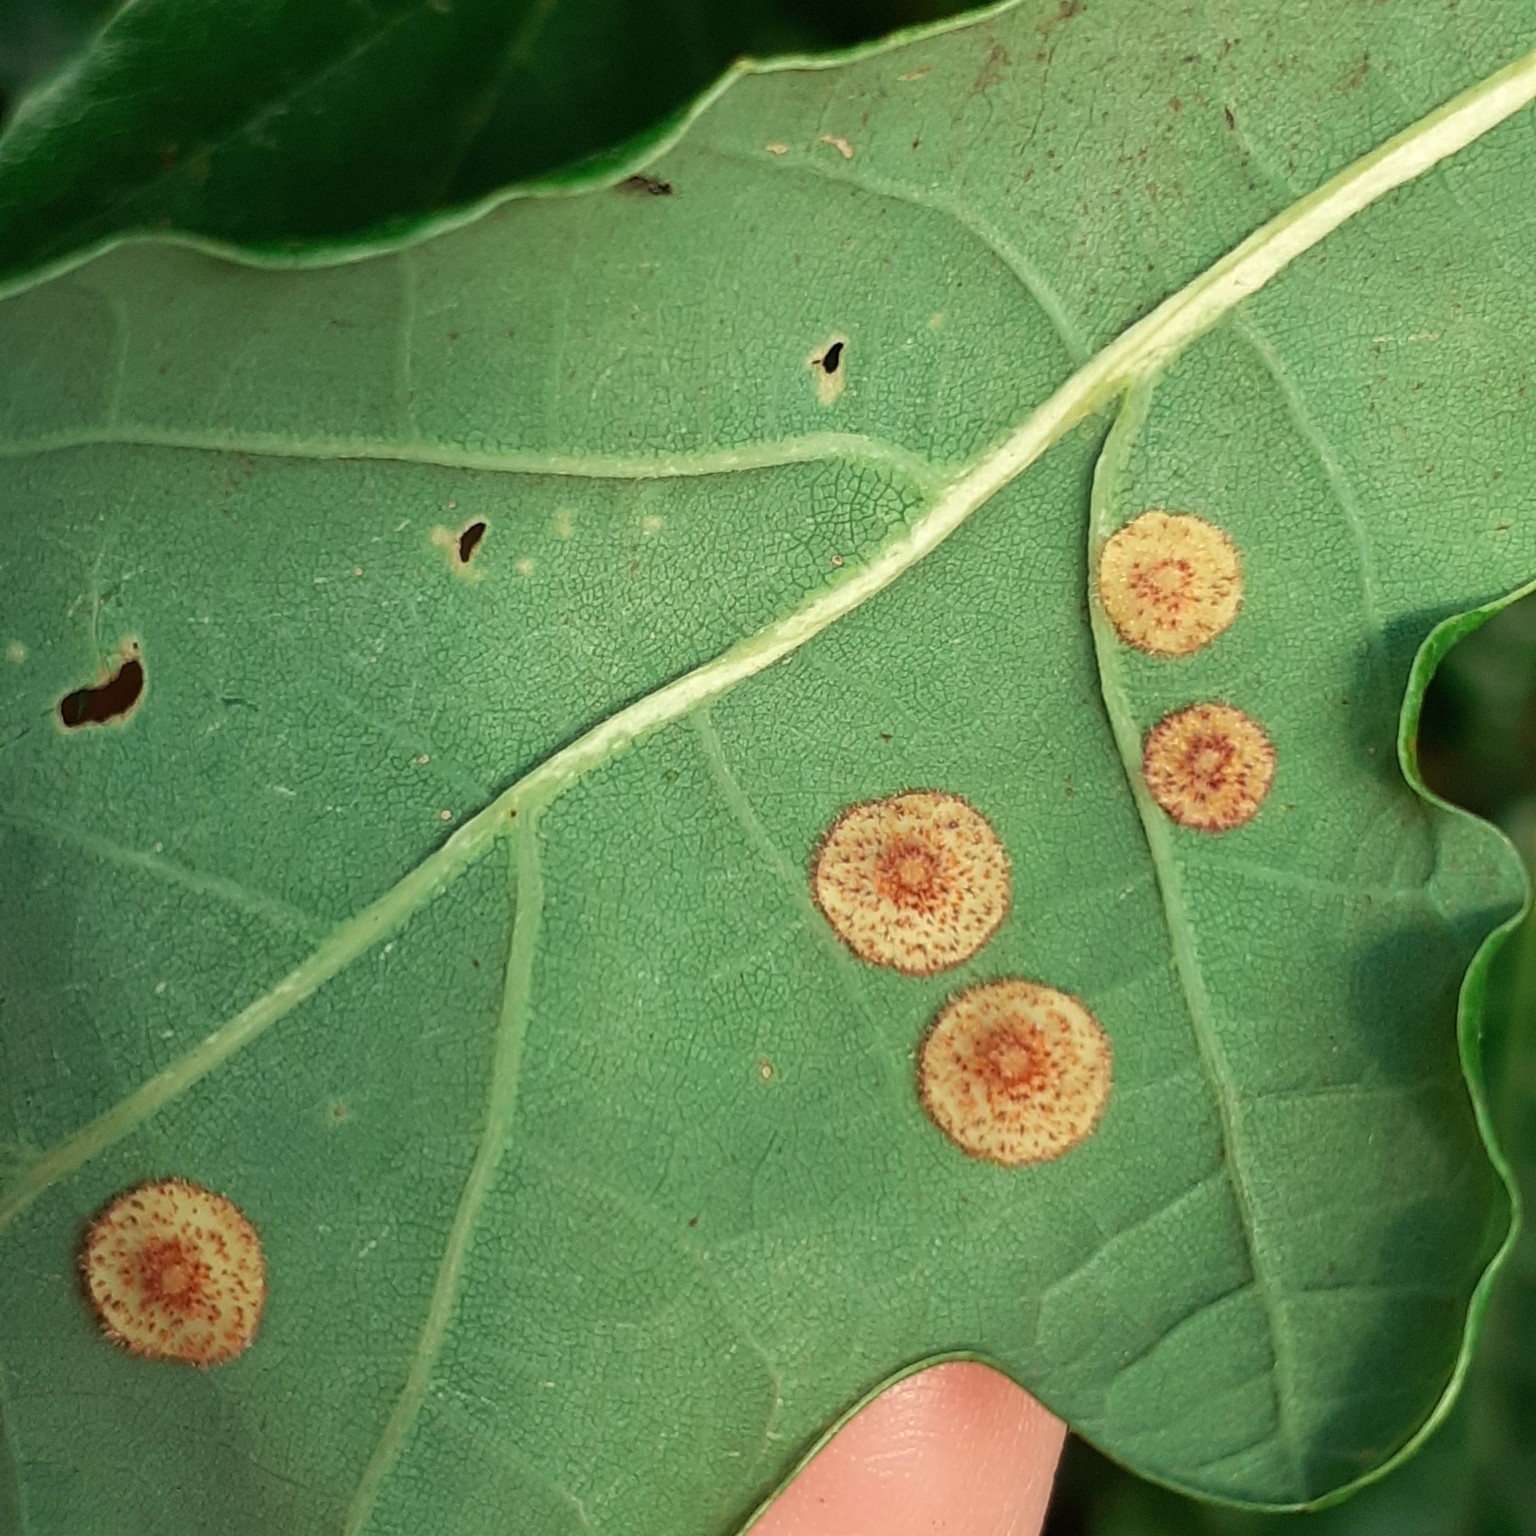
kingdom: Animalia
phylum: Arthropoda
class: Insecta
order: Hymenoptera
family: Cynipidae
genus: Neuroterus
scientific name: Neuroterus quercusbaccarum
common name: Common spangle gall
